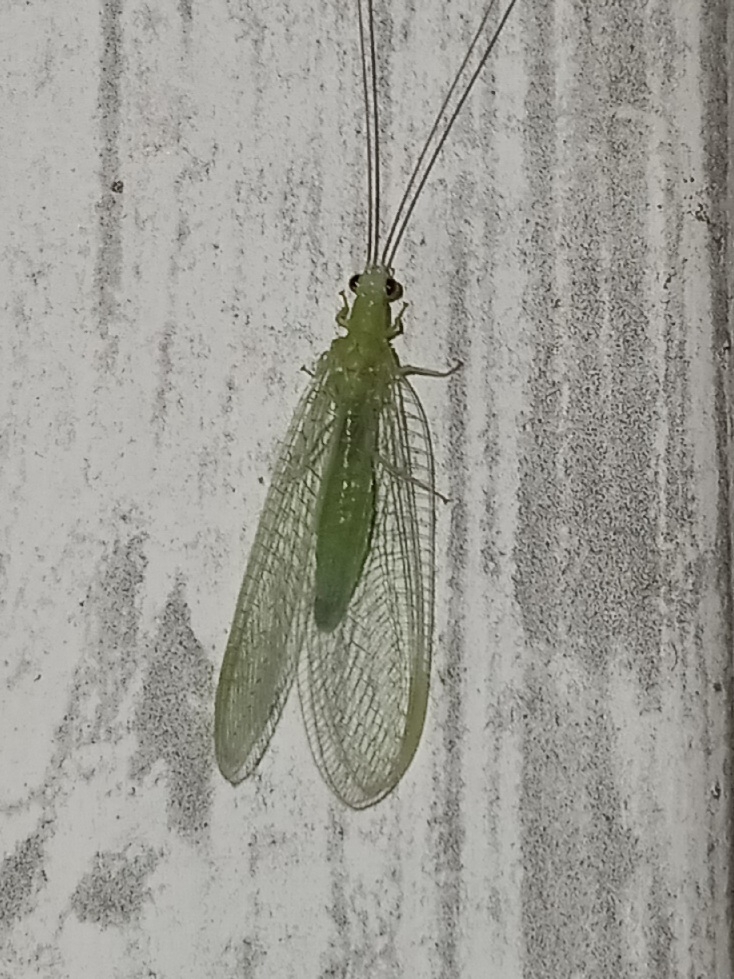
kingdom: Animalia
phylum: Arthropoda
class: Insecta
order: Neuroptera
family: Chrysopidae
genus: Chrysopa
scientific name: Chrysopa nigricornis
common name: Black-horned green lacewing
